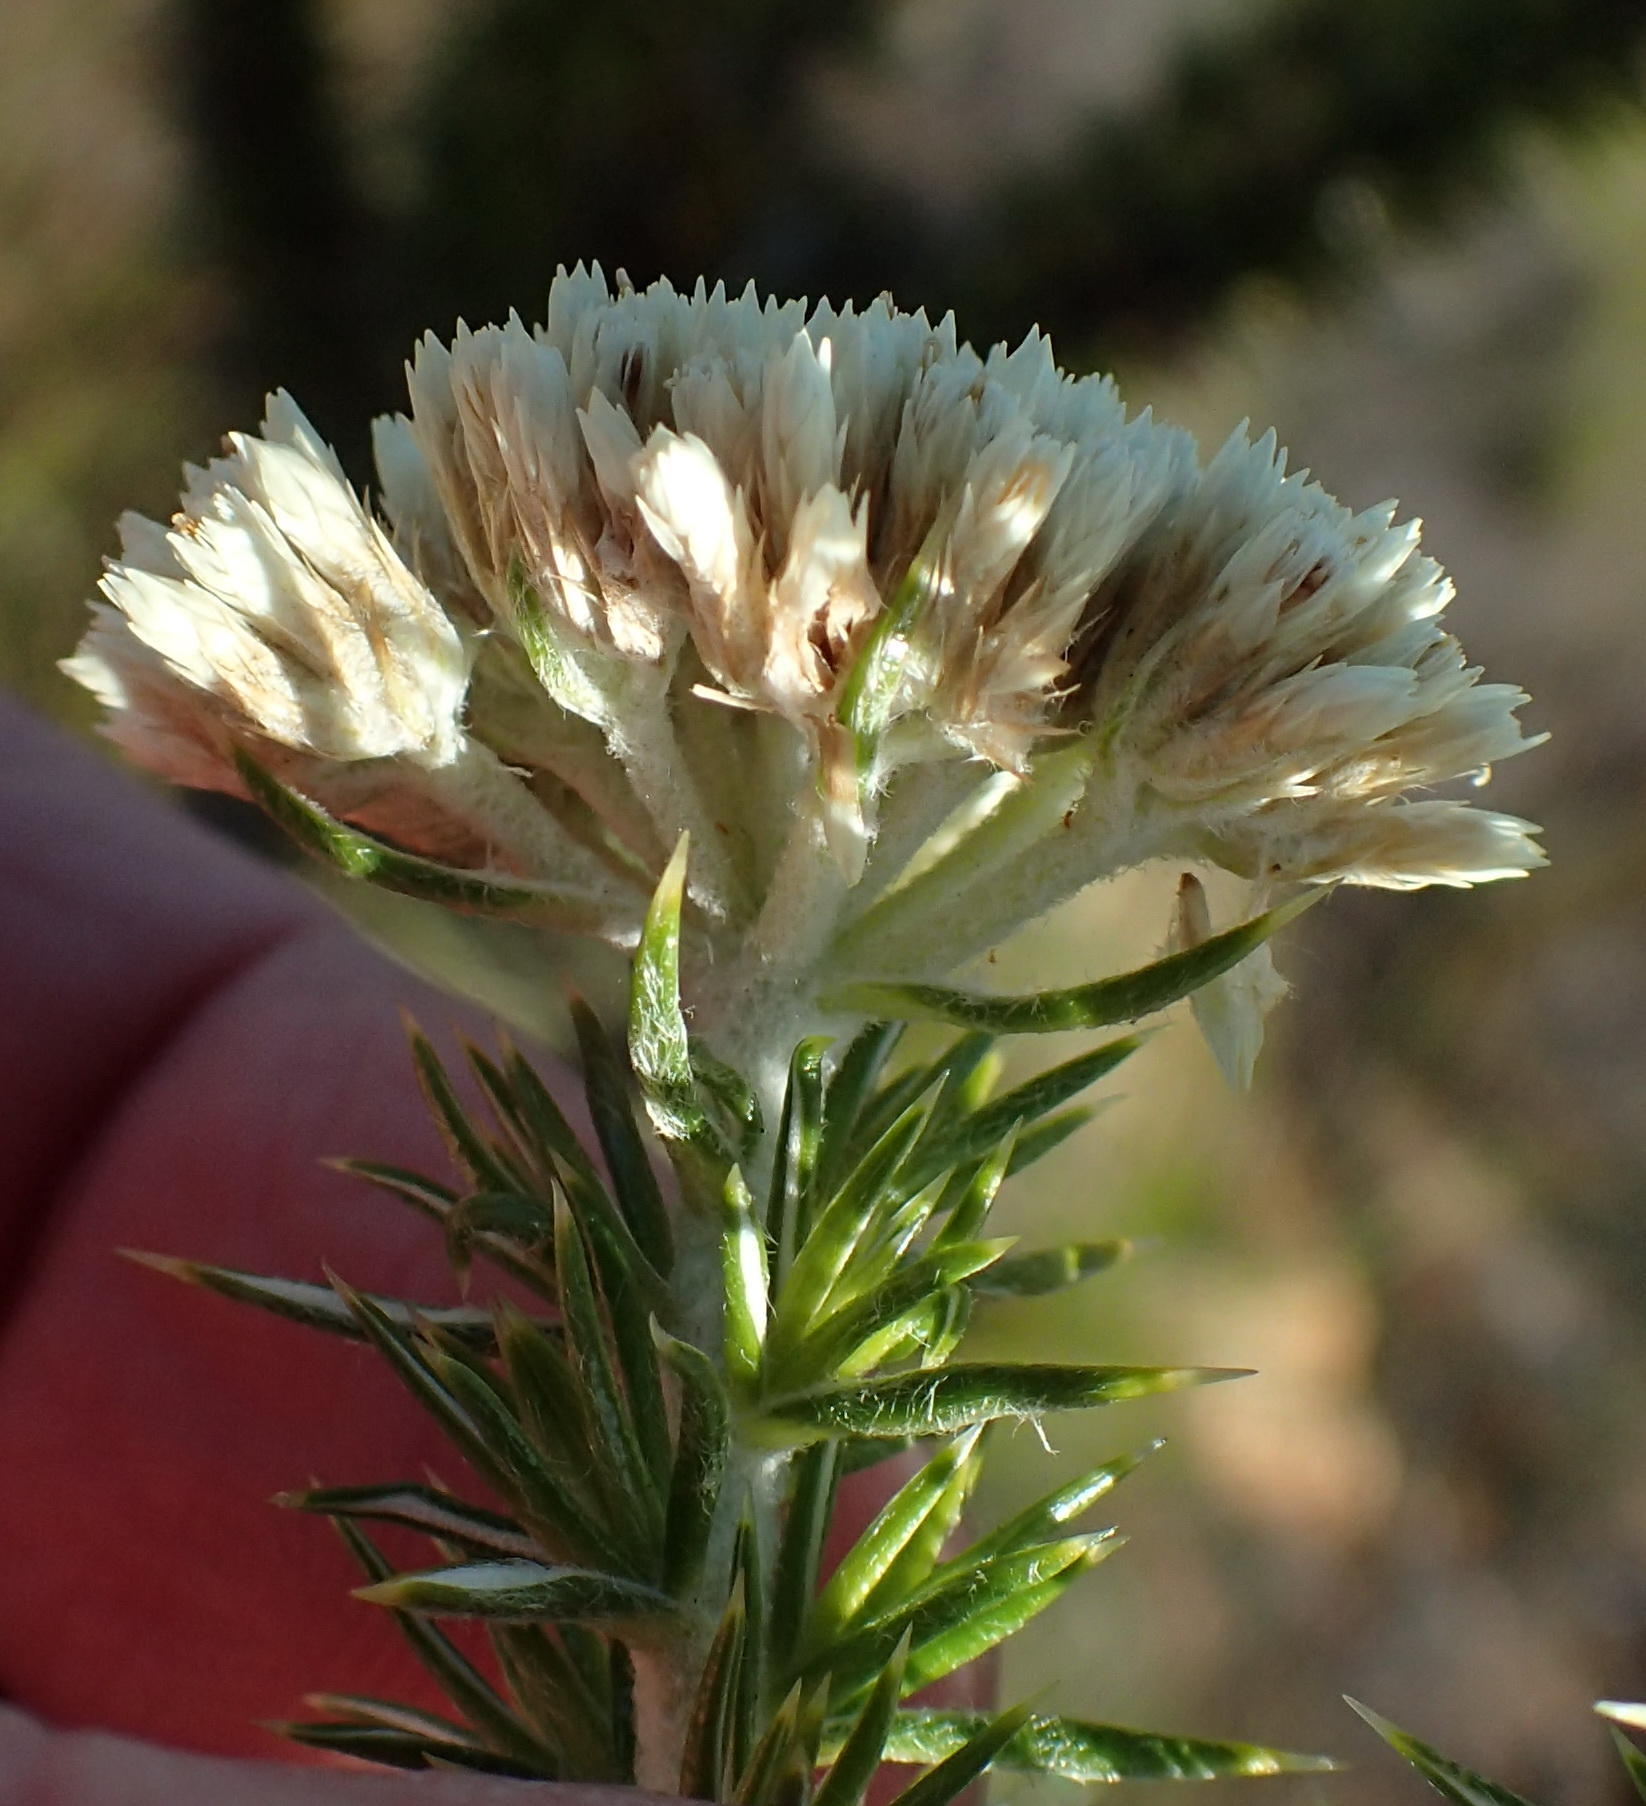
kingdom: Plantae
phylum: Tracheophyta
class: Magnoliopsida
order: Asterales
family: Asteraceae
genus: Metalasia
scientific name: Metalasia trivialis
